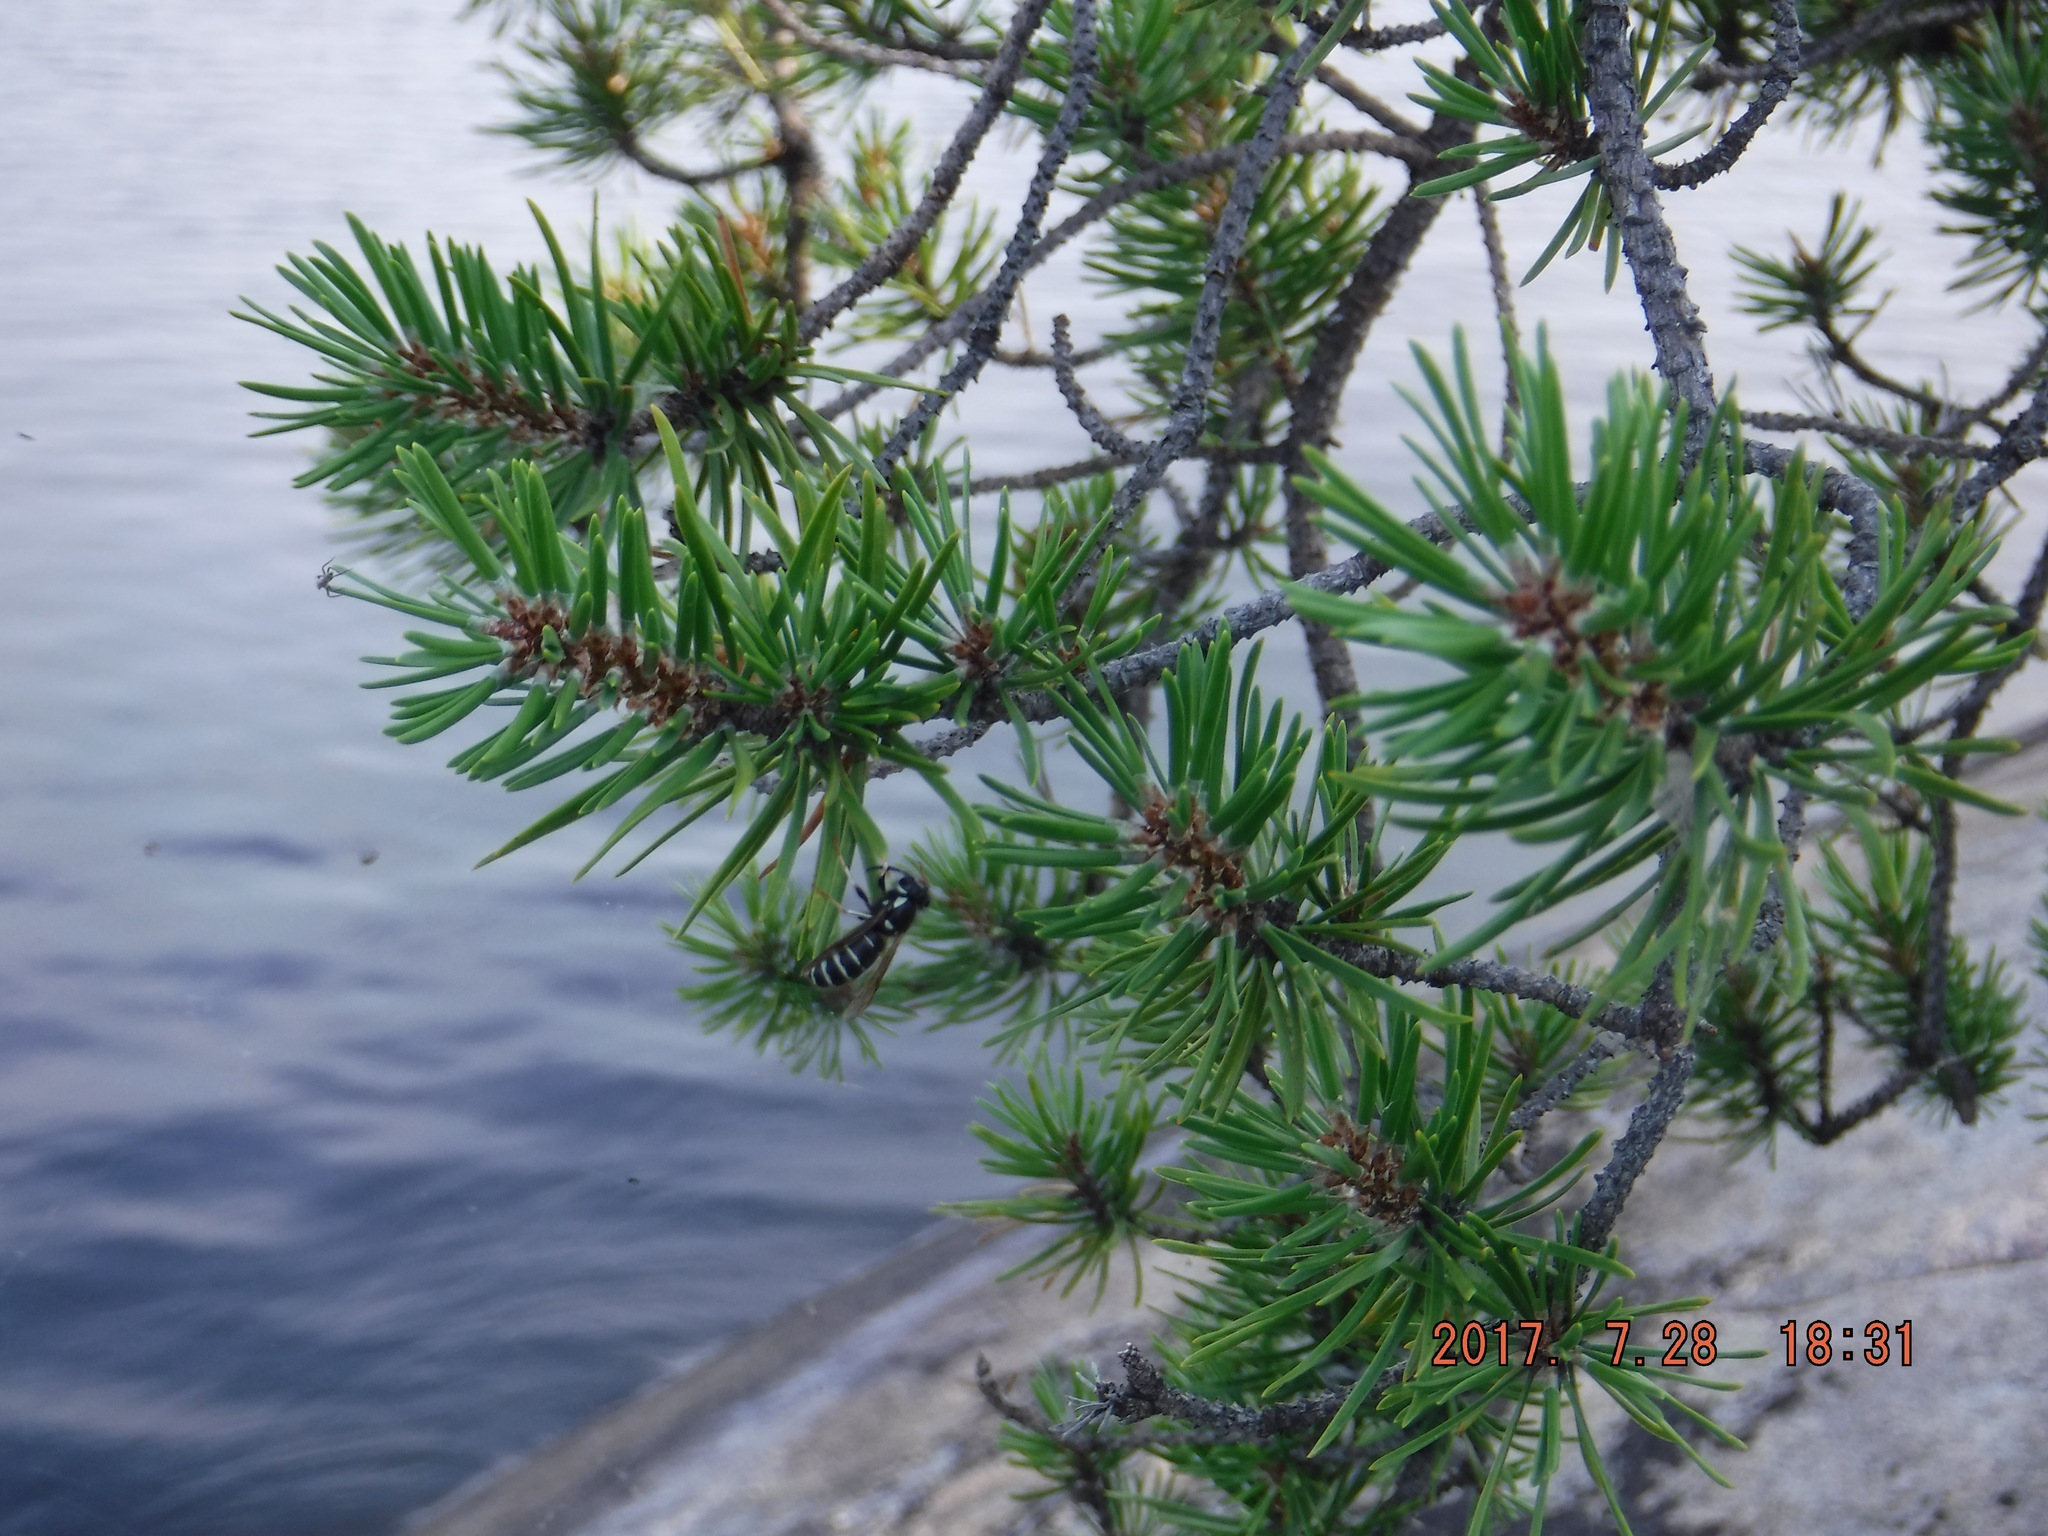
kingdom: Animalia
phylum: Arthropoda
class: Insecta
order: Hymenoptera
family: Vespidae
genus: Vespula
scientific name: Vespula consobrina
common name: Blackjacket
